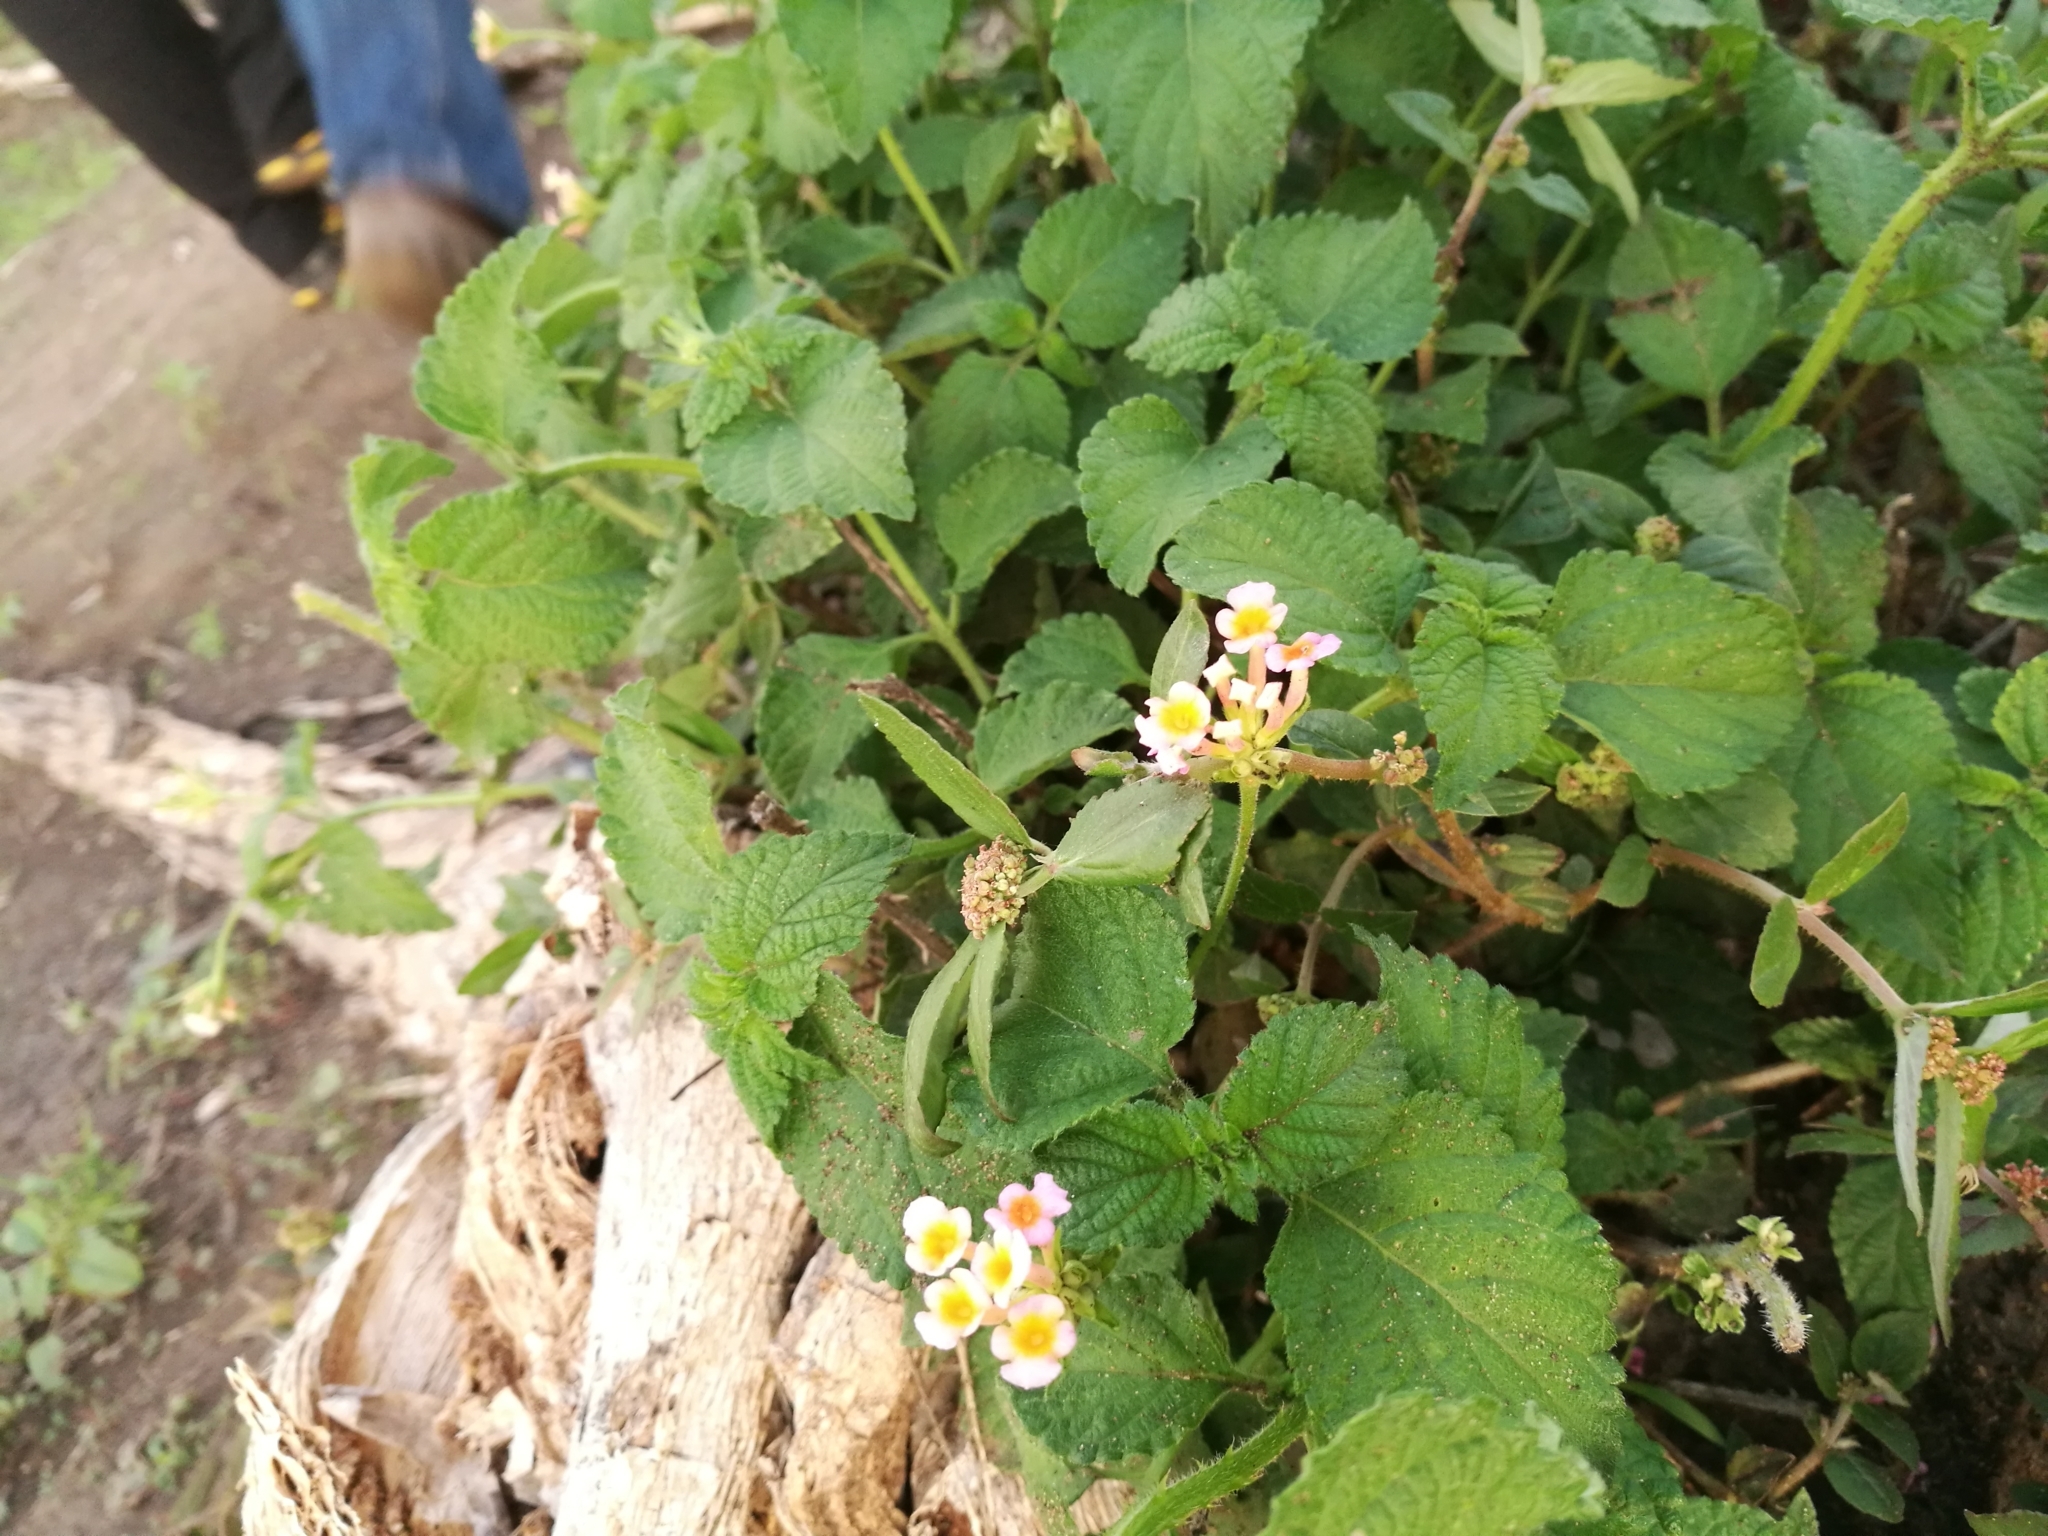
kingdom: Plantae
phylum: Tracheophyta
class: Magnoliopsida
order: Lamiales
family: Verbenaceae
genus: Lantana
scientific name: Lantana camara
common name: Lantana
